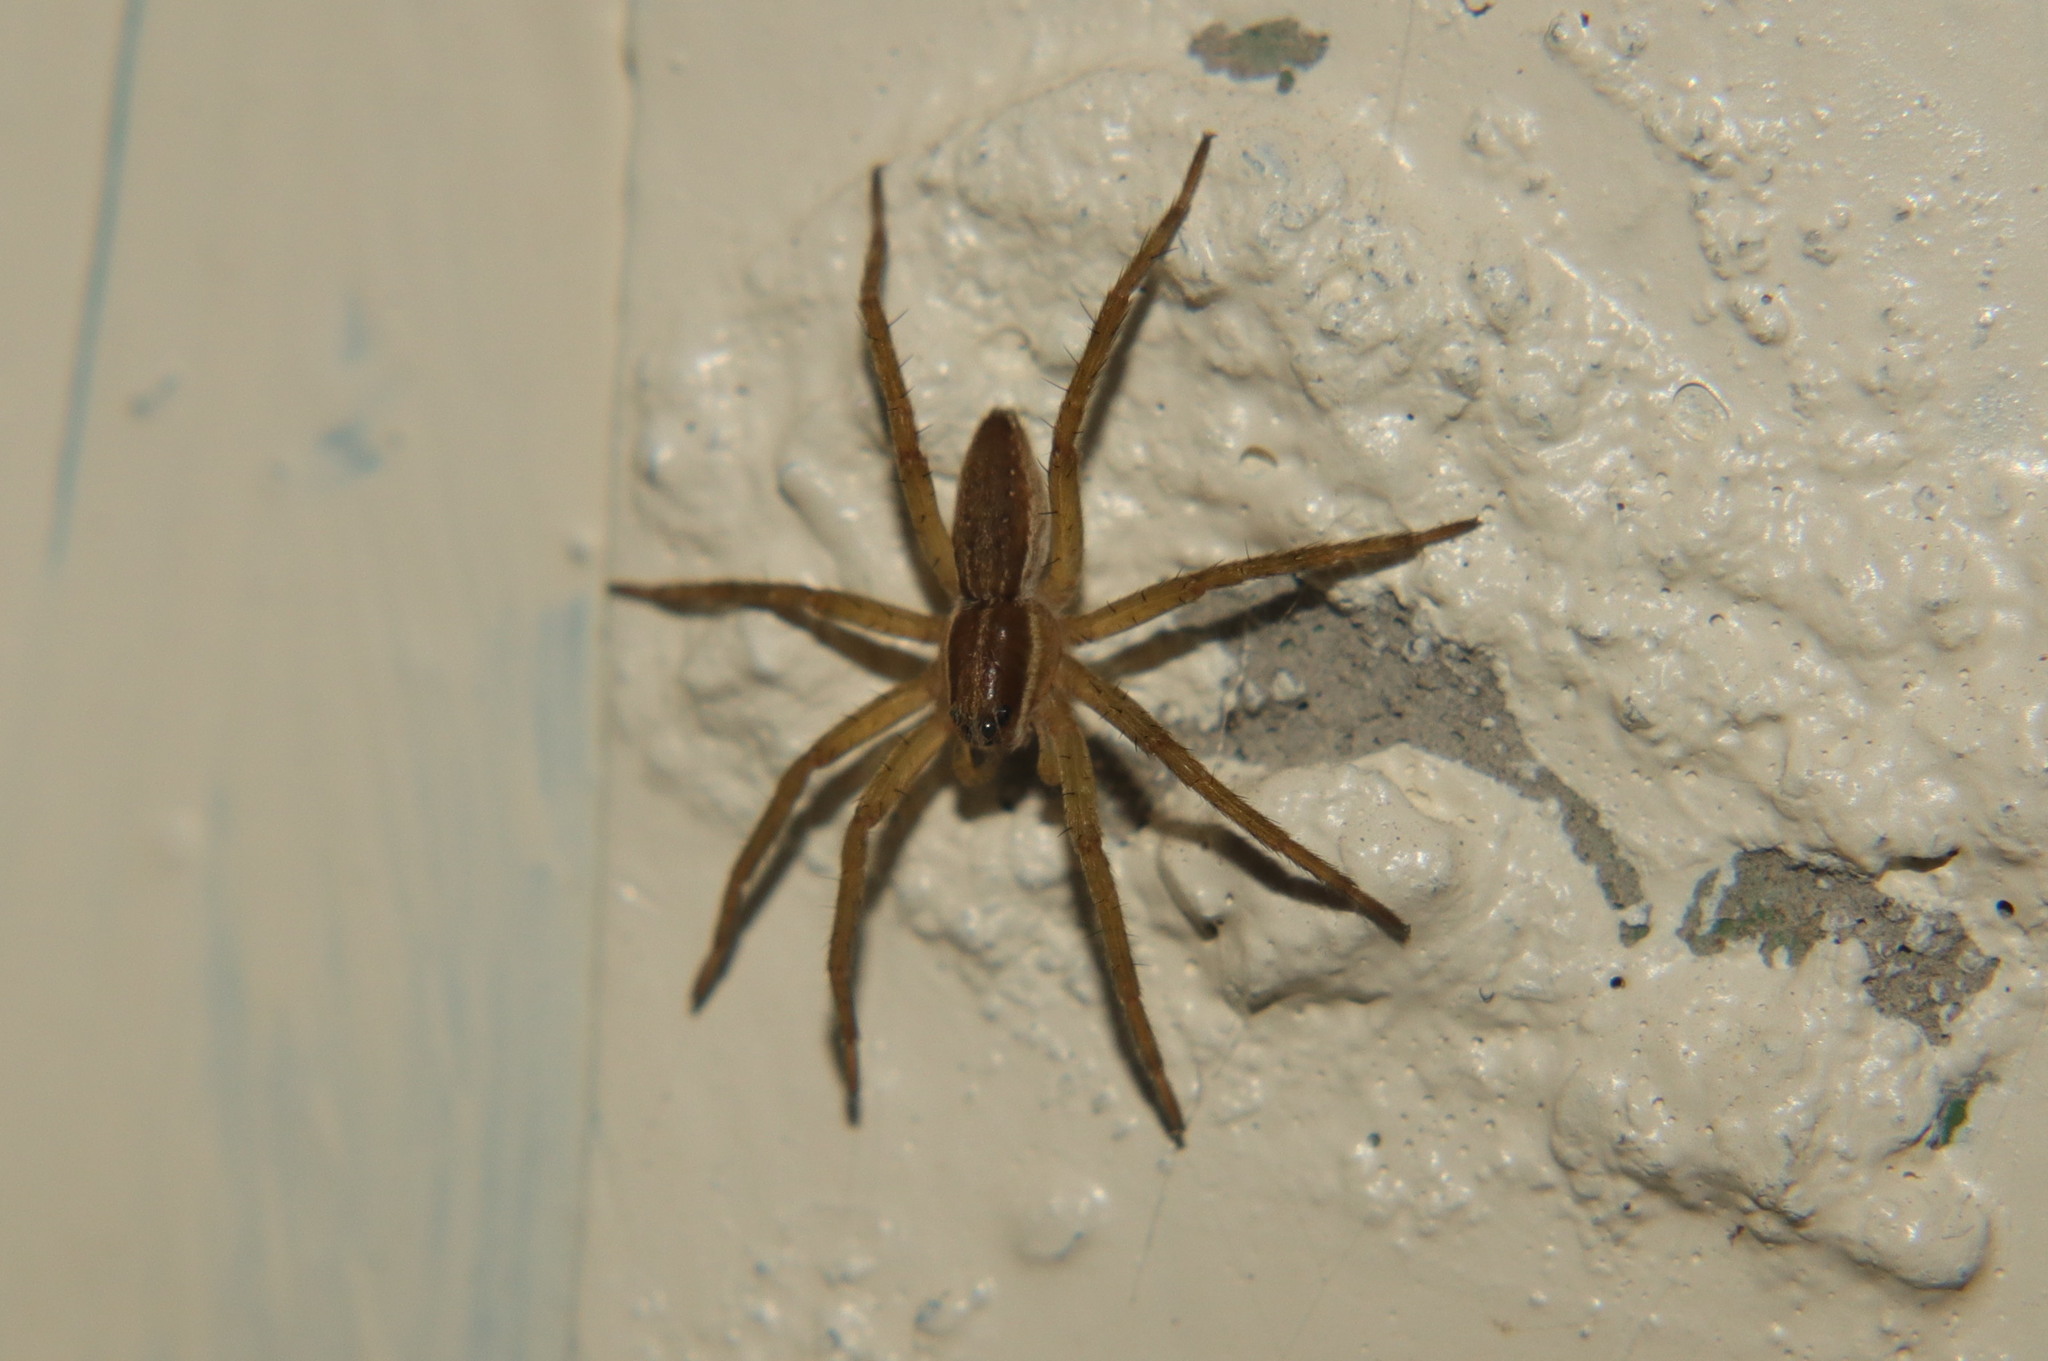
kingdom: Animalia
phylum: Arthropoda
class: Arachnida
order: Araneae
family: Pisauridae
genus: Dolomedes
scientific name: Dolomedes minor
